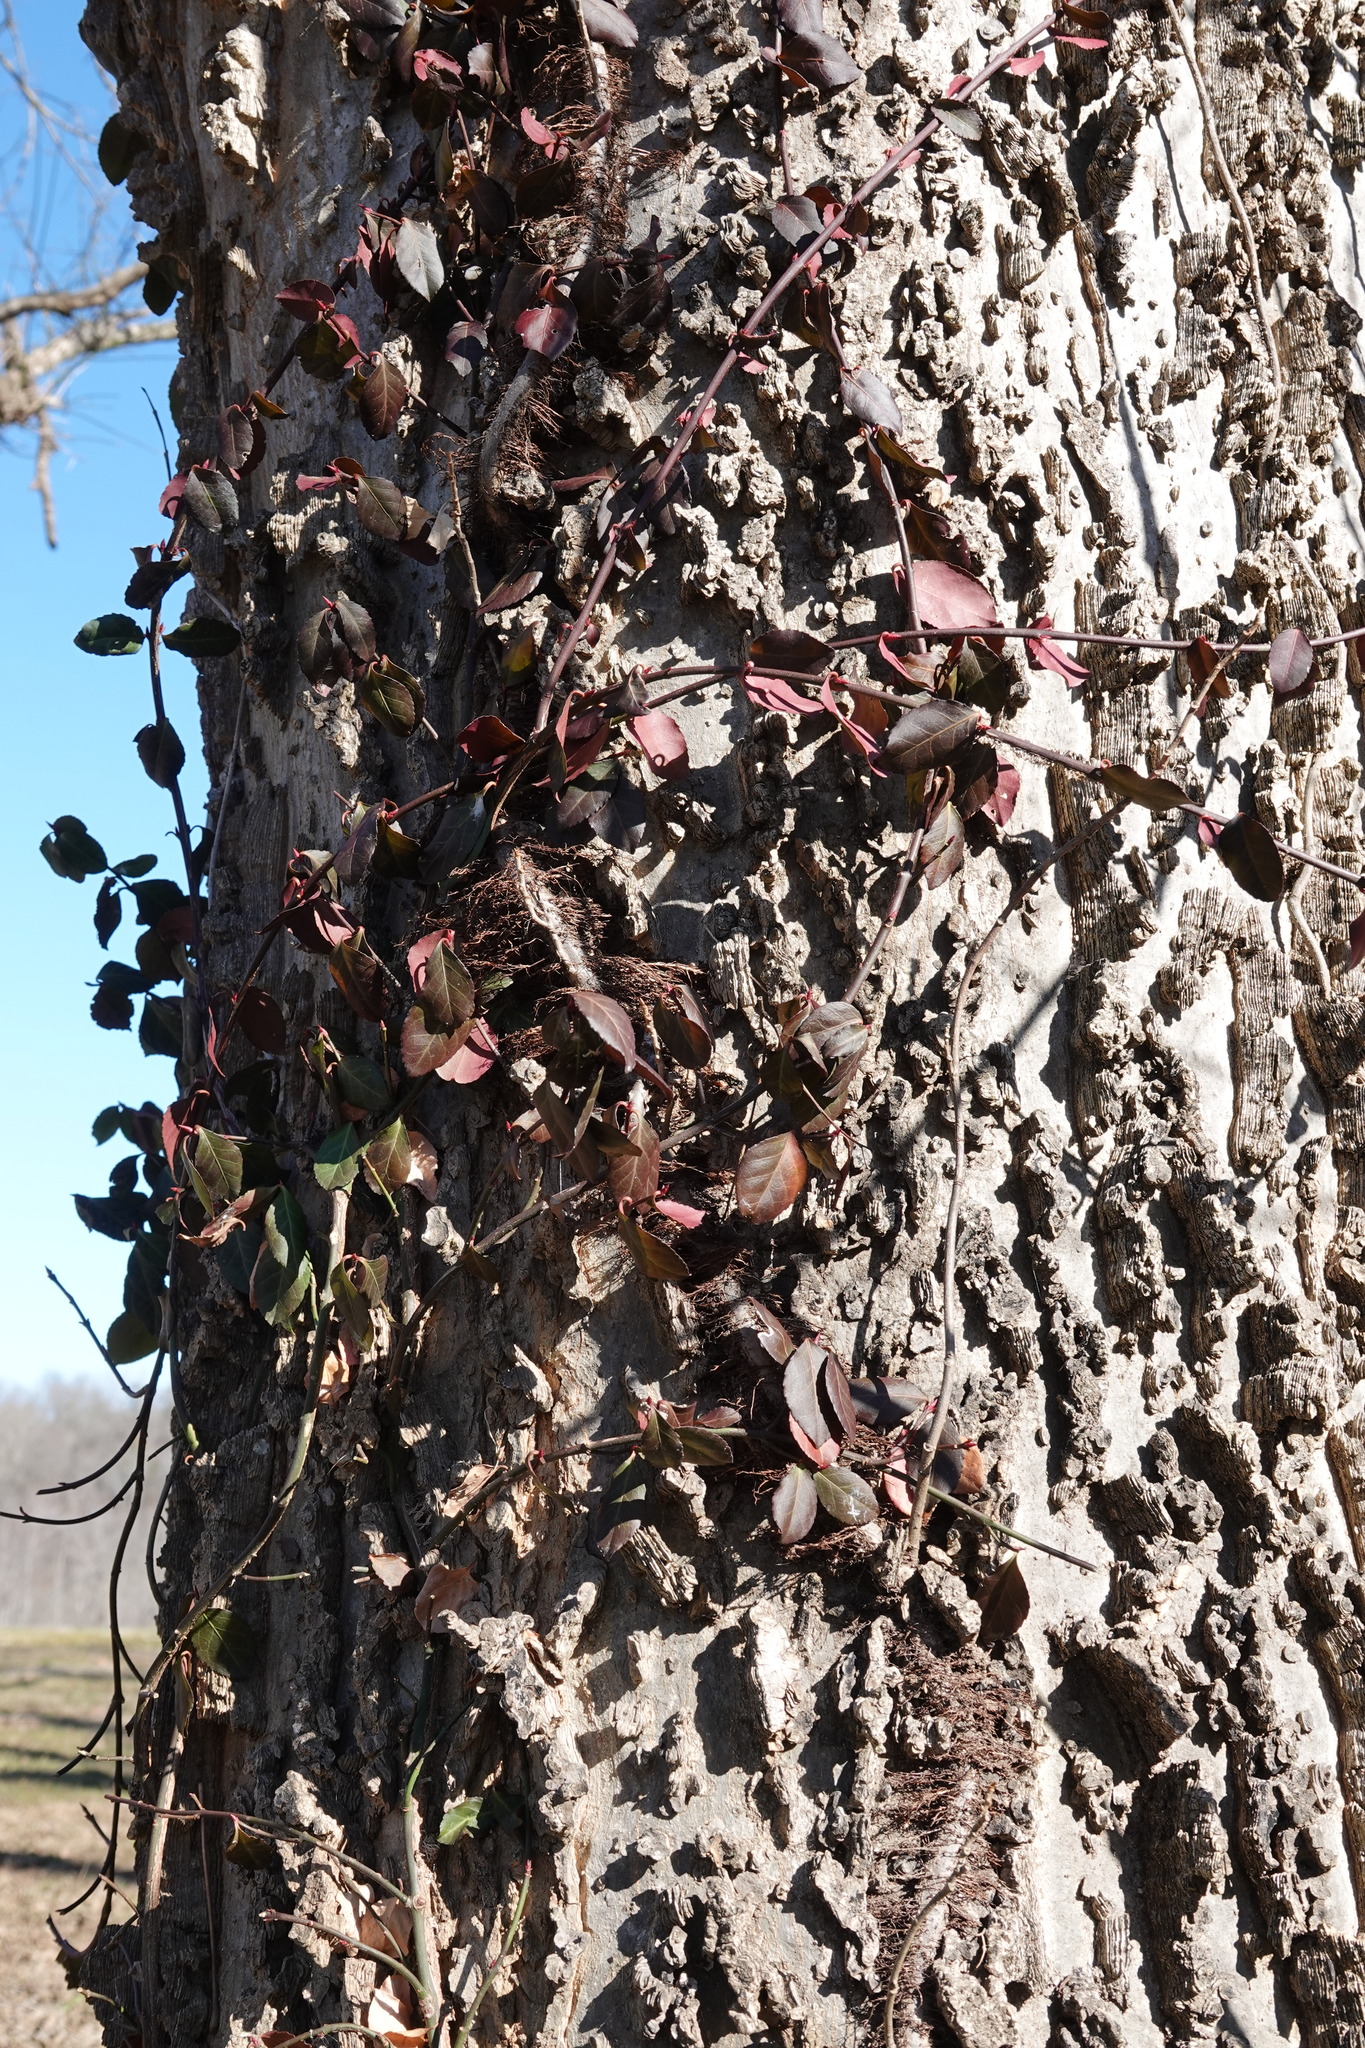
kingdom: Plantae
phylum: Tracheophyta
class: Magnoliopsida
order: Celastrales
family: Celastraceae
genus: Euonymus
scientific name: Euonymus fortunei
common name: Climbing euonymus
